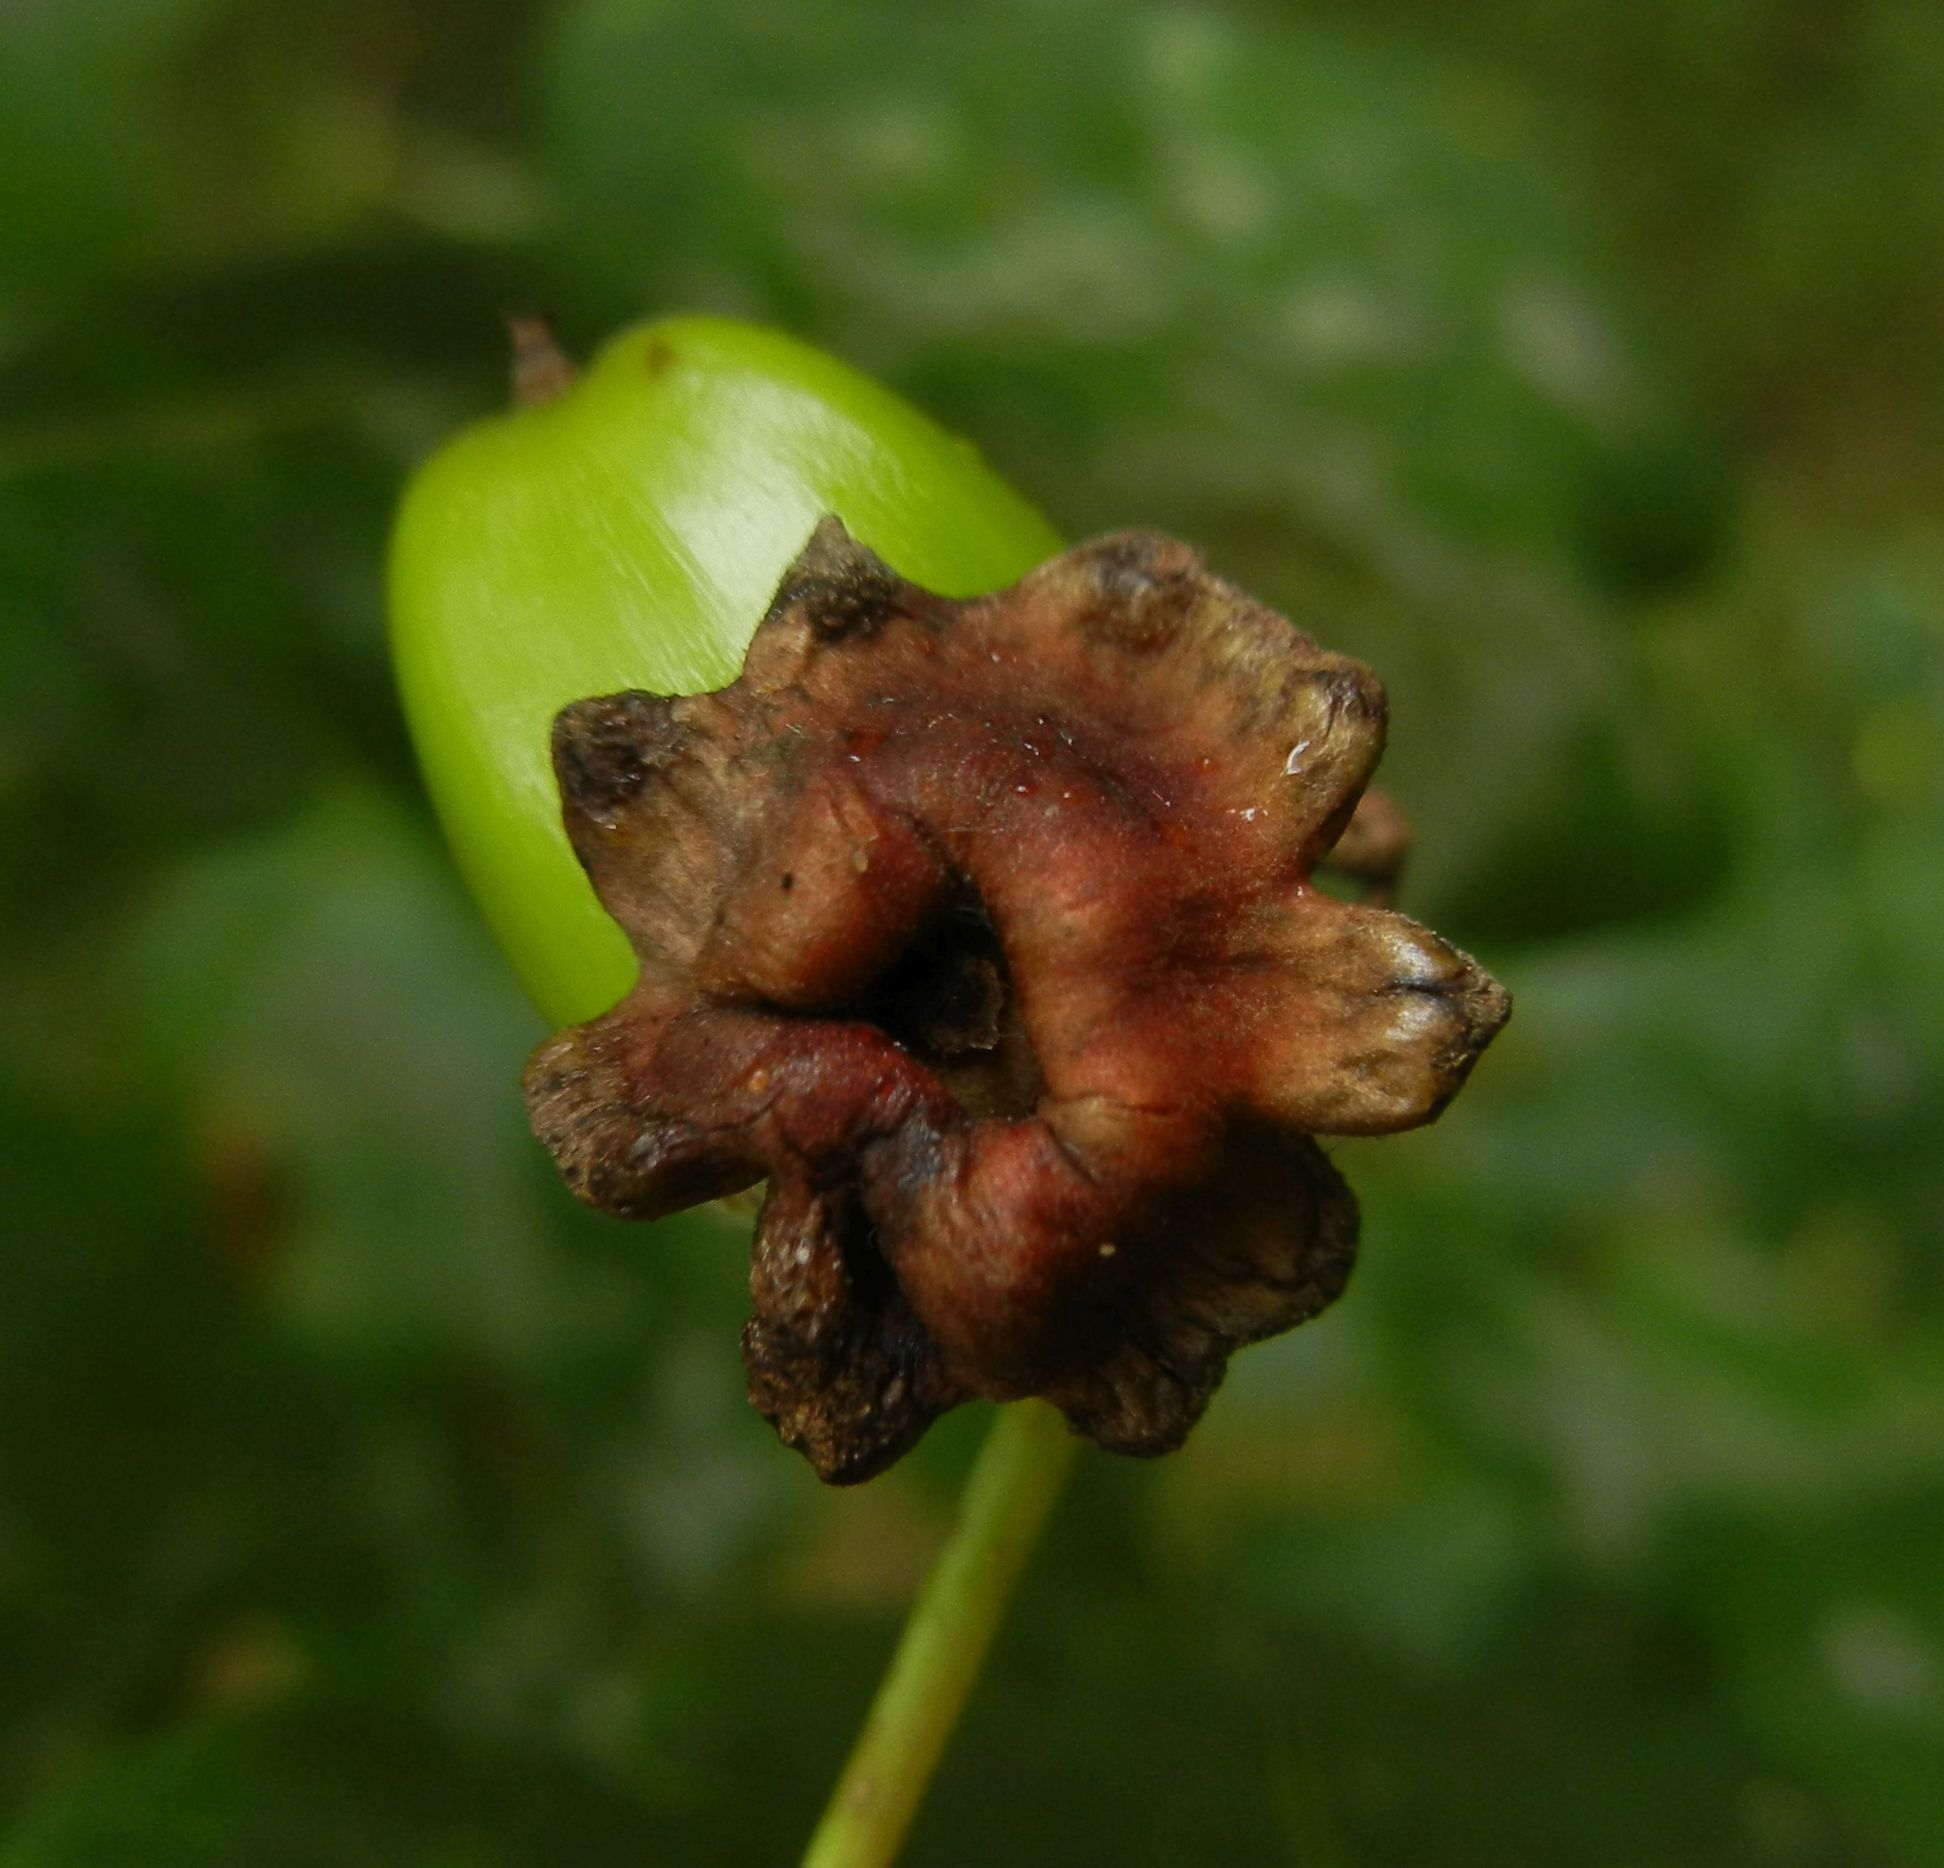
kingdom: Animalia
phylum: Arthropoda
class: Insecta
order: Hymenoptera
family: Cynipidae
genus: Andricus
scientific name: Andricus quercuscalicis
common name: Knopper gall
